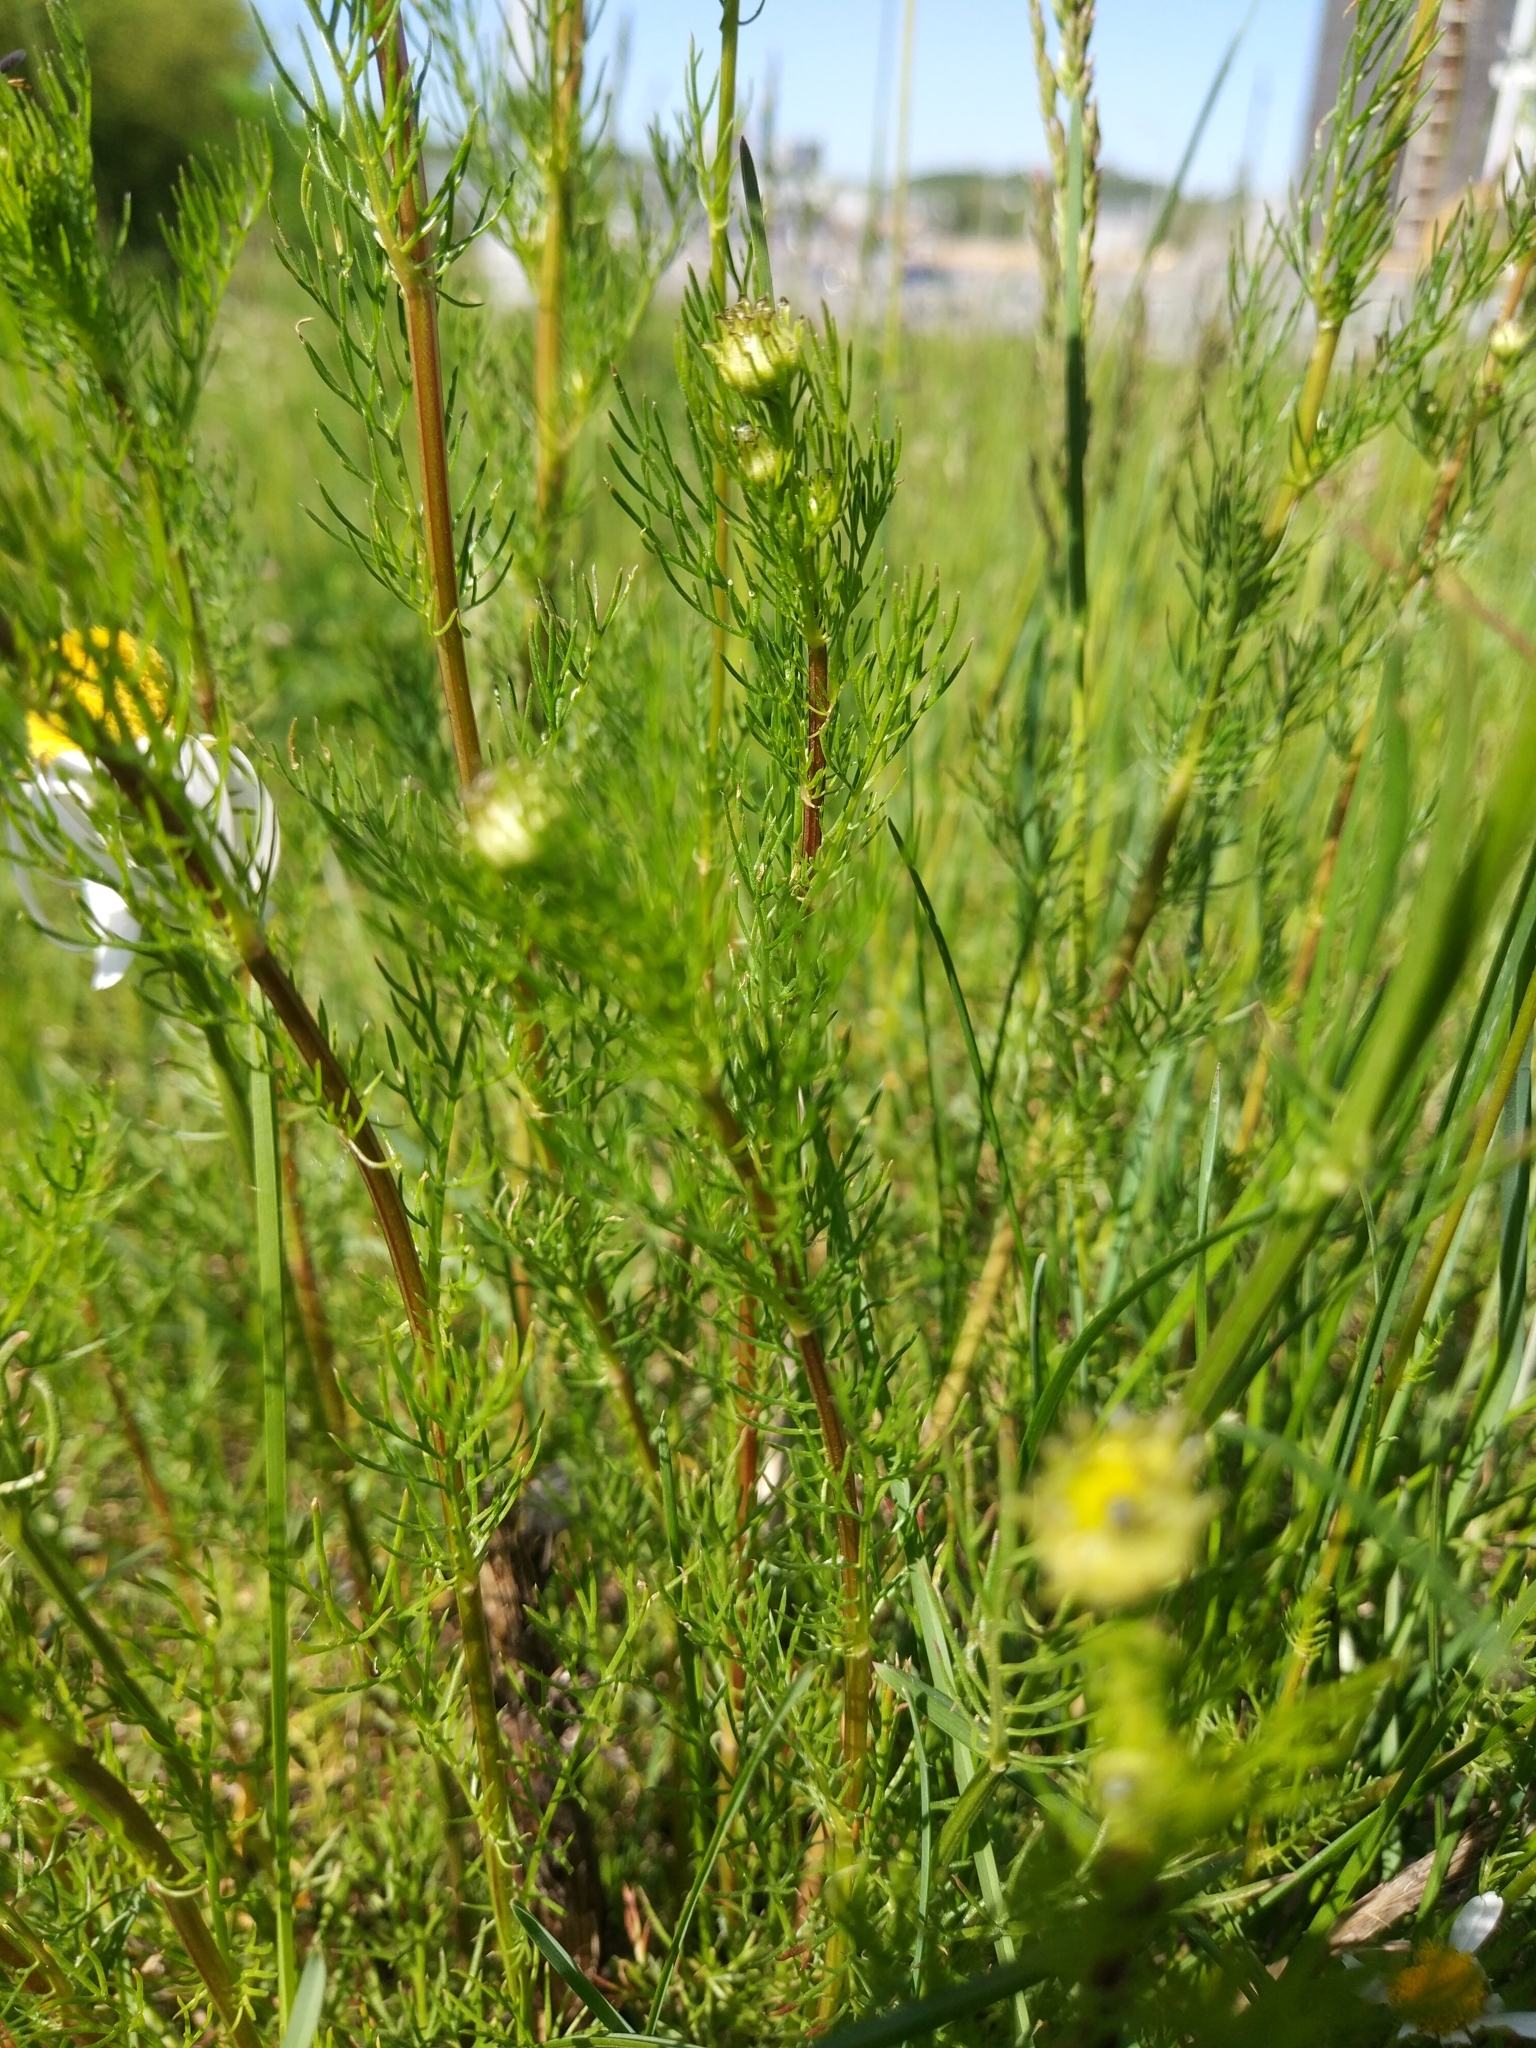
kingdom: Plantae
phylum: Tracheophyta
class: Magnoliopsida
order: Asterales
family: Asteraceae
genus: Tripleurospermum
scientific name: Tripleurospermum inodorum
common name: Scentless mayweed
